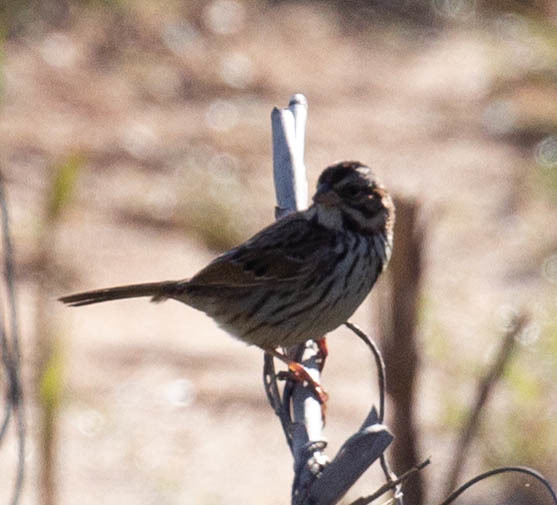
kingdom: Animalia
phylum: Chordata
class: Aves
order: Passeriformes
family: Passerellidae
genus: Melospiza
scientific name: Melospiza melodia
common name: Song sparrow
